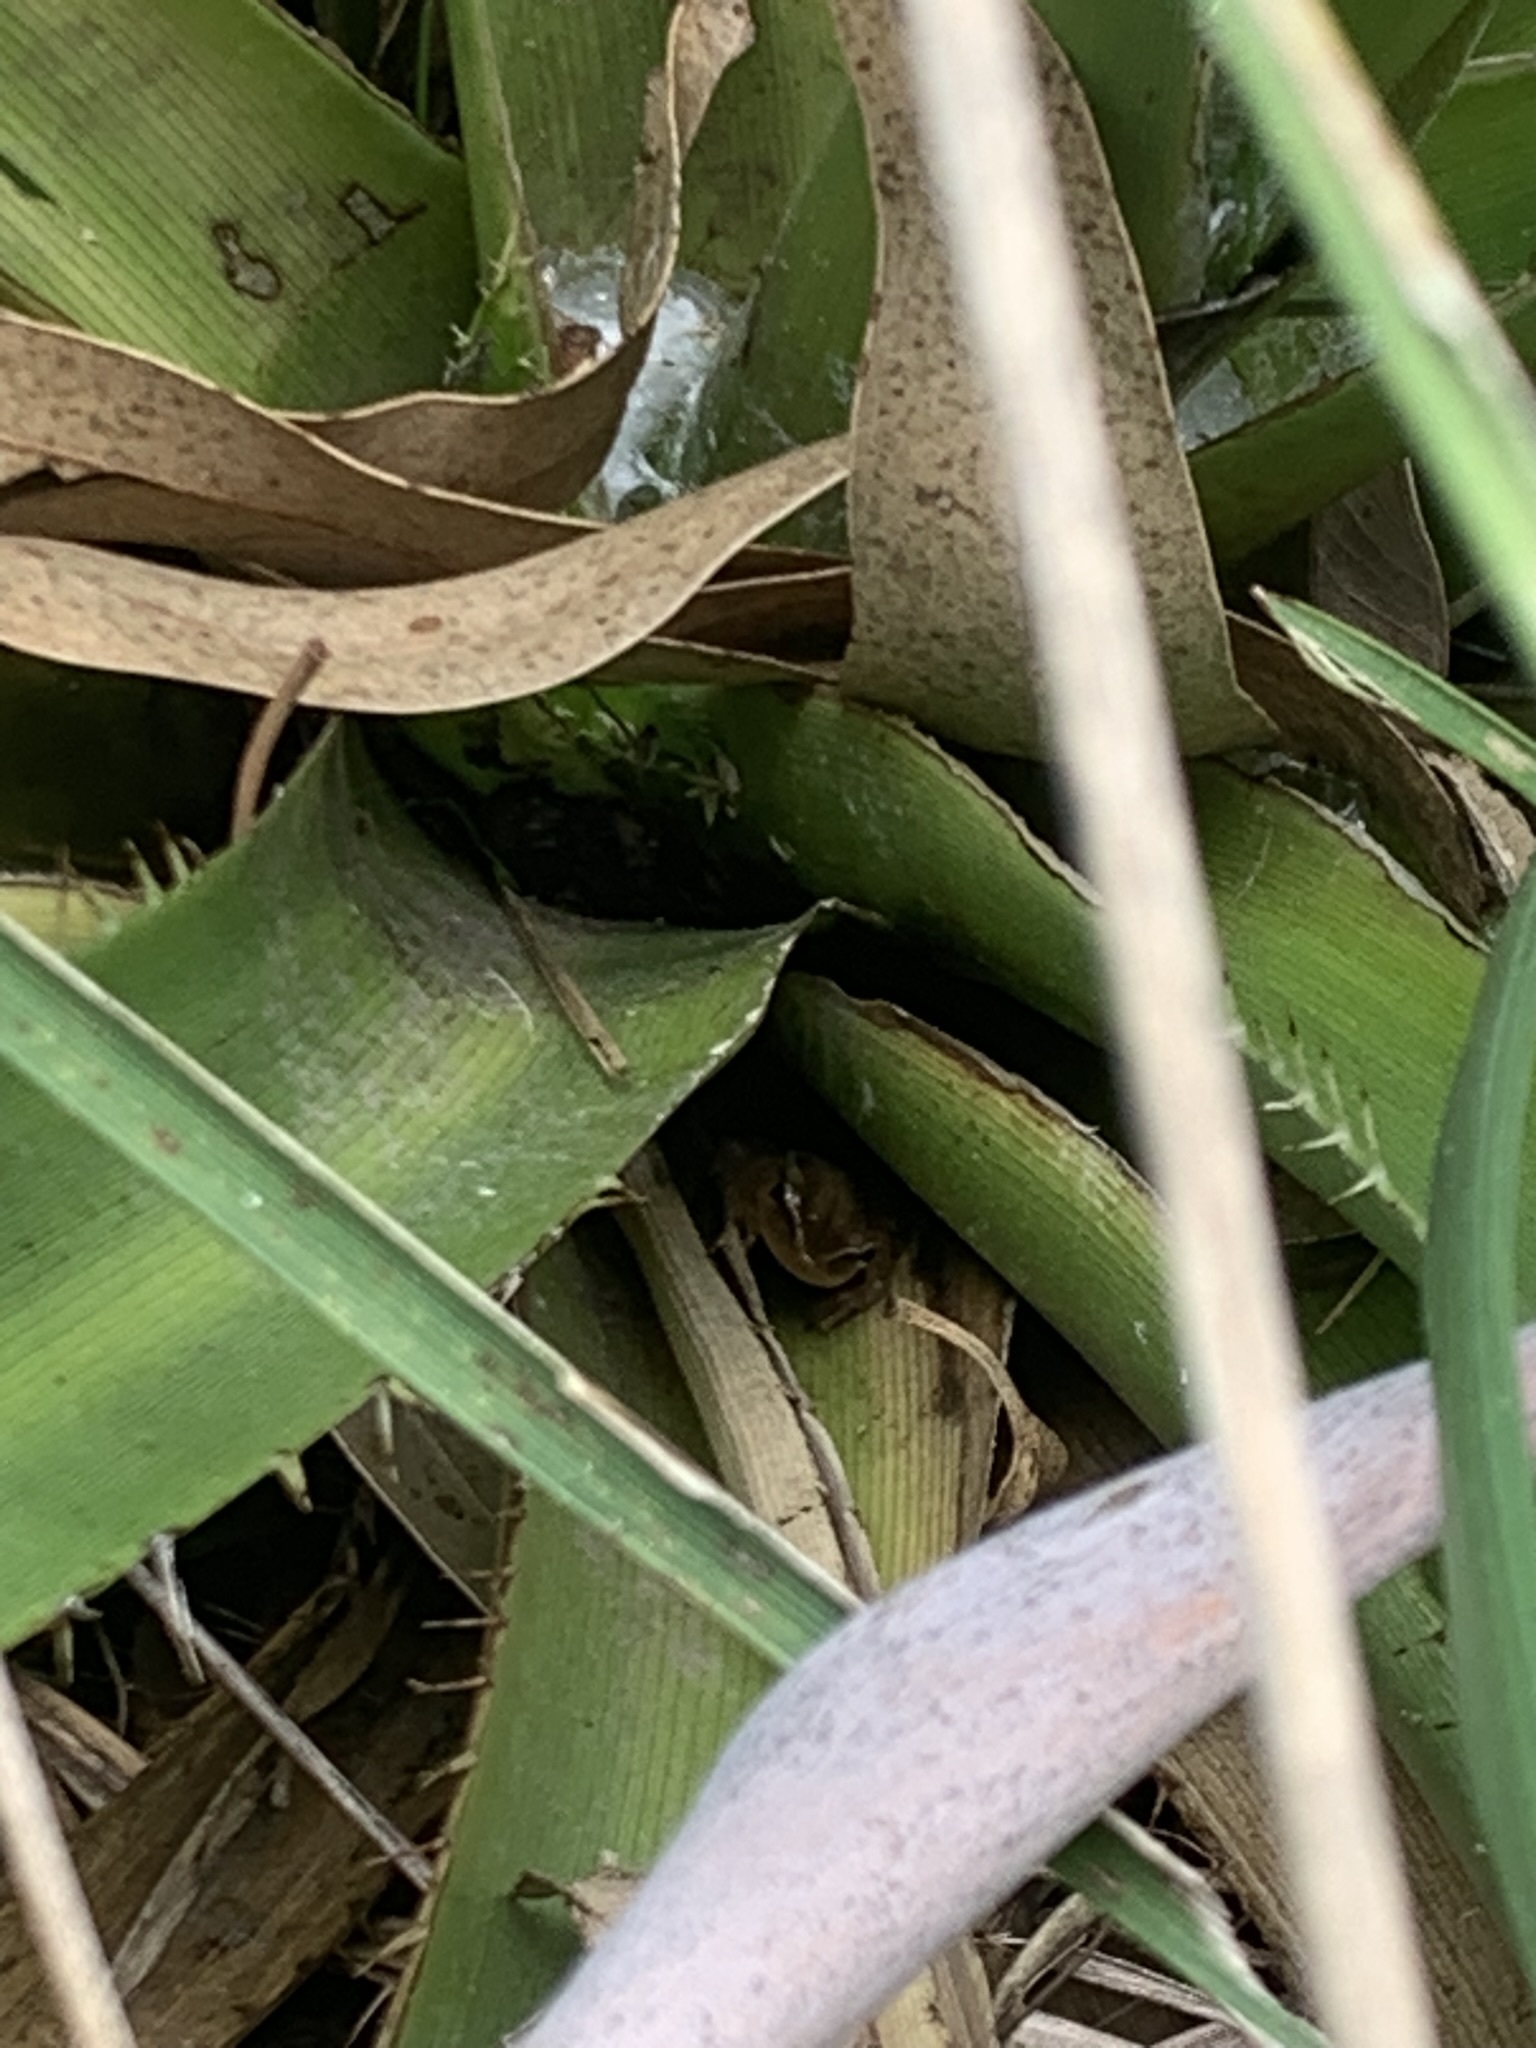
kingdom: Animalia
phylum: Chordata
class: Amphibia
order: Anura
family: Hylidae
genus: Scinax
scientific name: Scinax squalirostris
